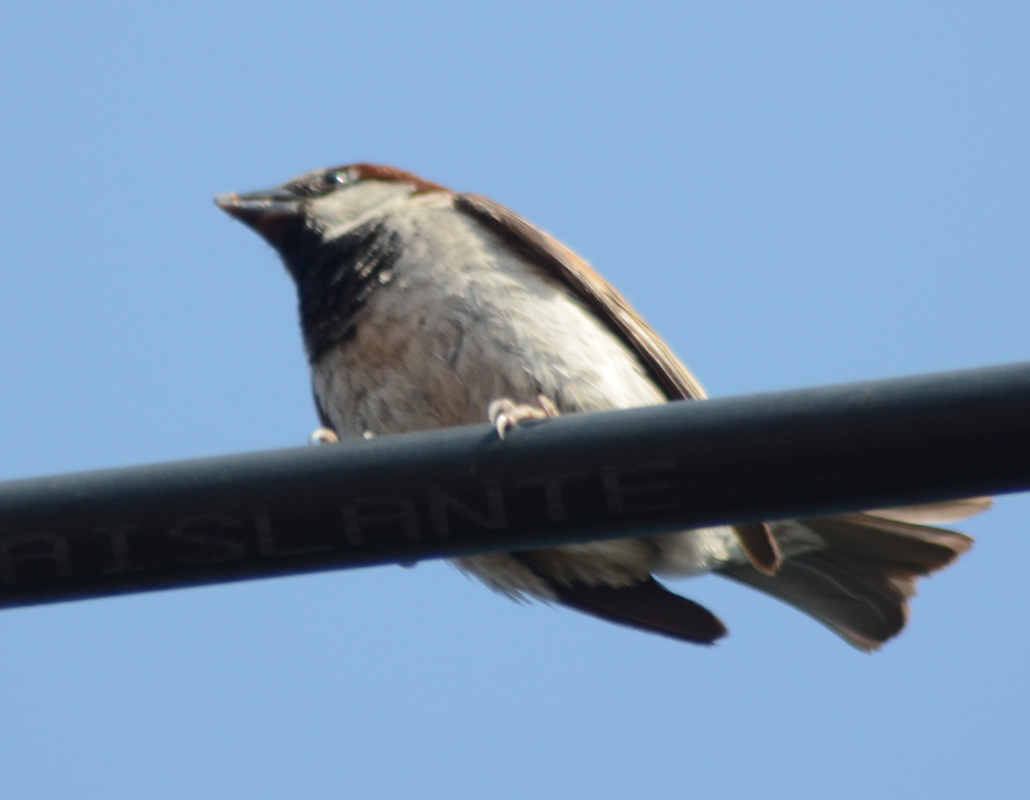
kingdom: Animalia
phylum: Chordata
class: Aves
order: Passeriformes
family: Passeridae
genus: Passer
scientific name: Passer domesticus
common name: House sparrow
